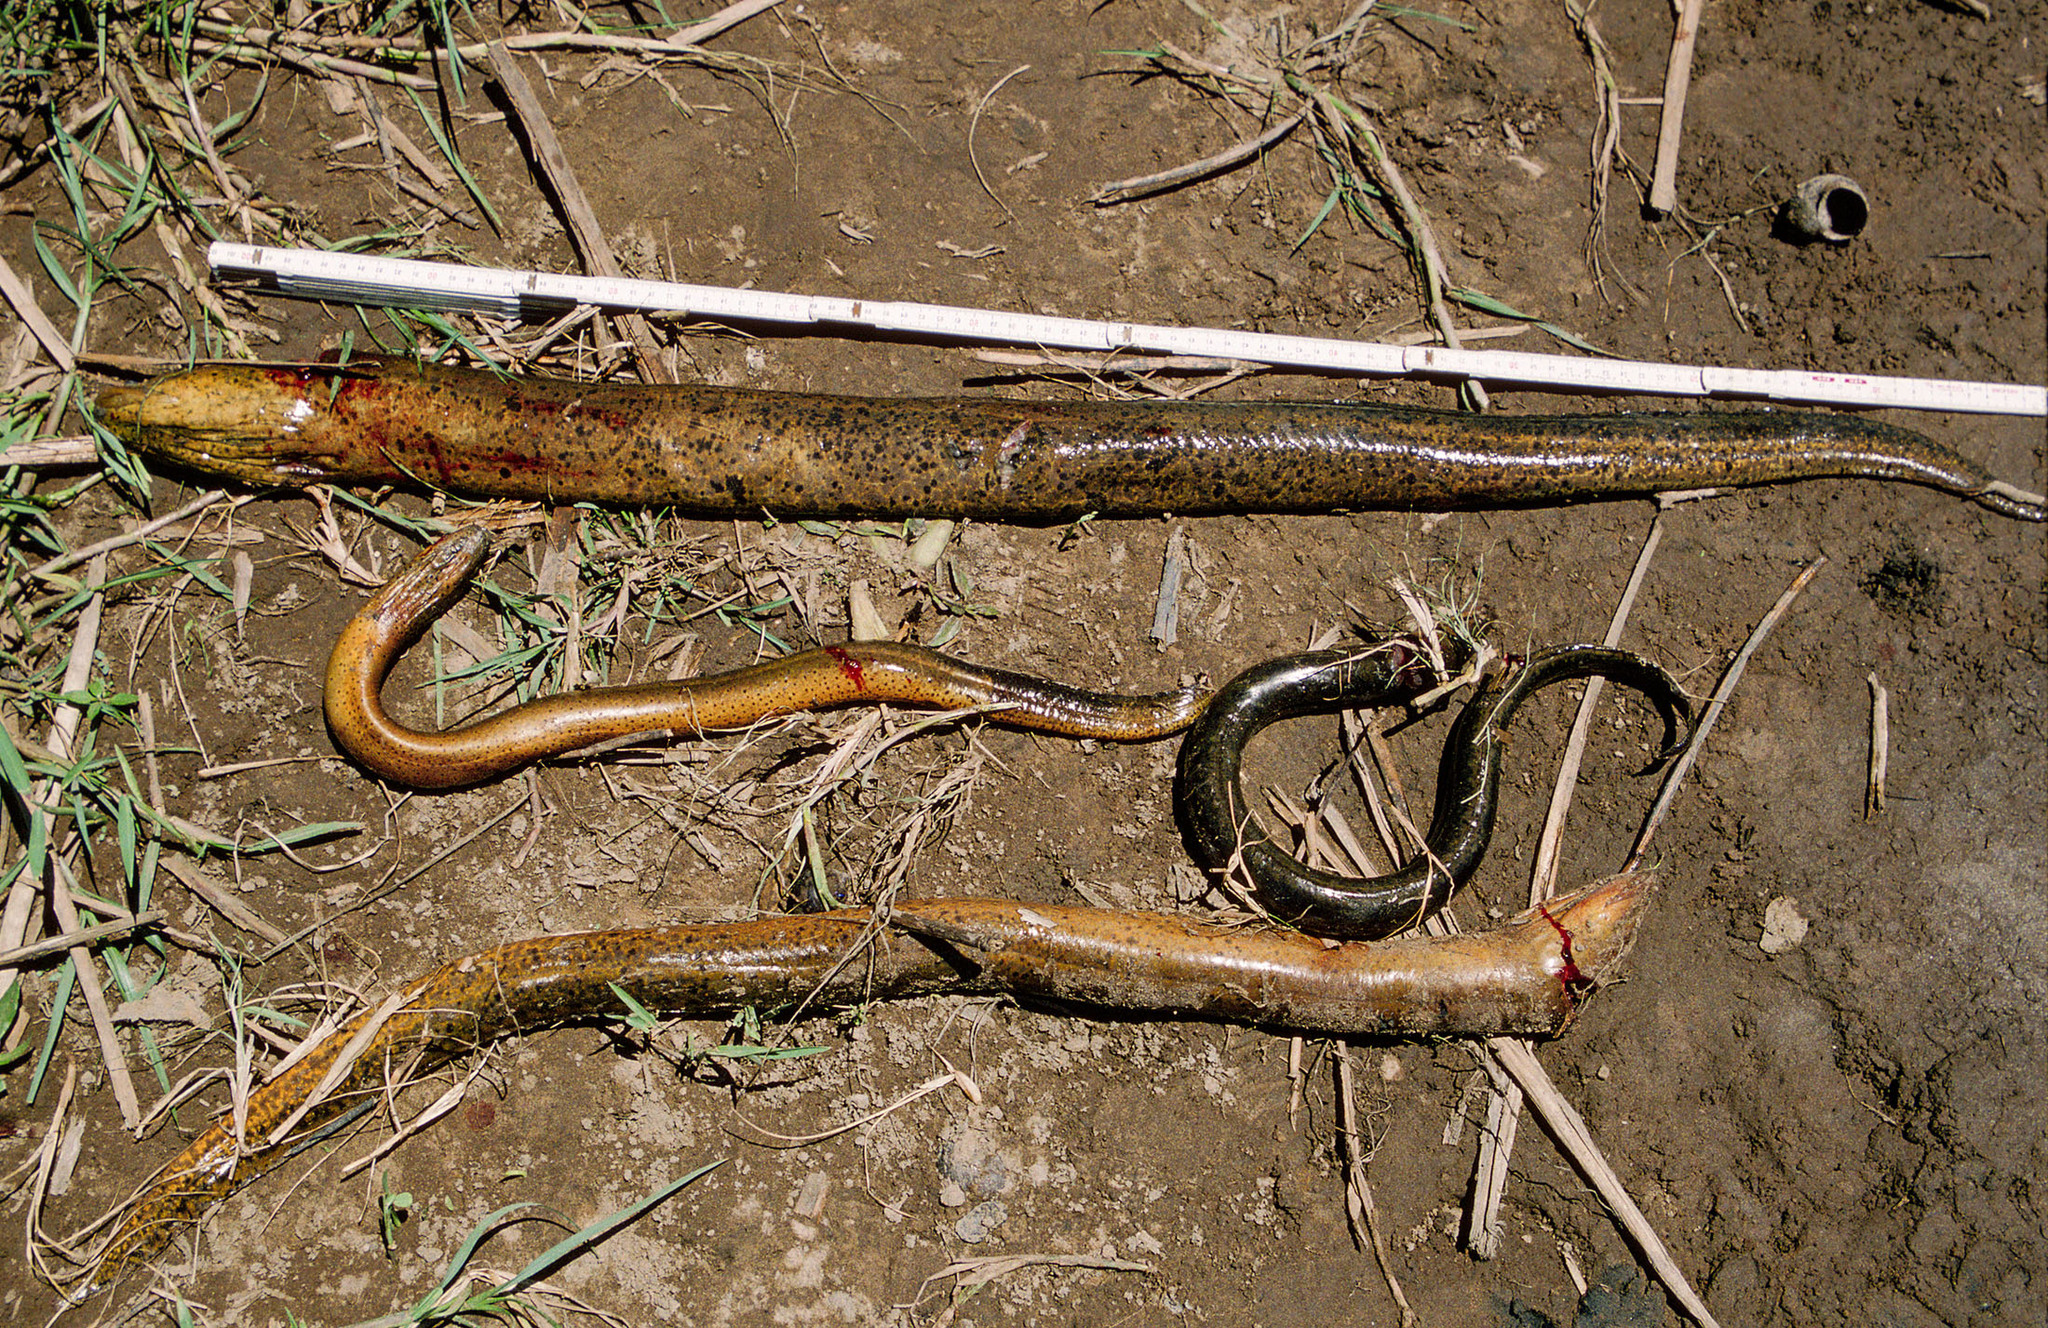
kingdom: Animalia
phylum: Chordata
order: Synbranchiformes
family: Synbranchidae
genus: Synbranchus
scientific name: Synbranchus marmoratus
